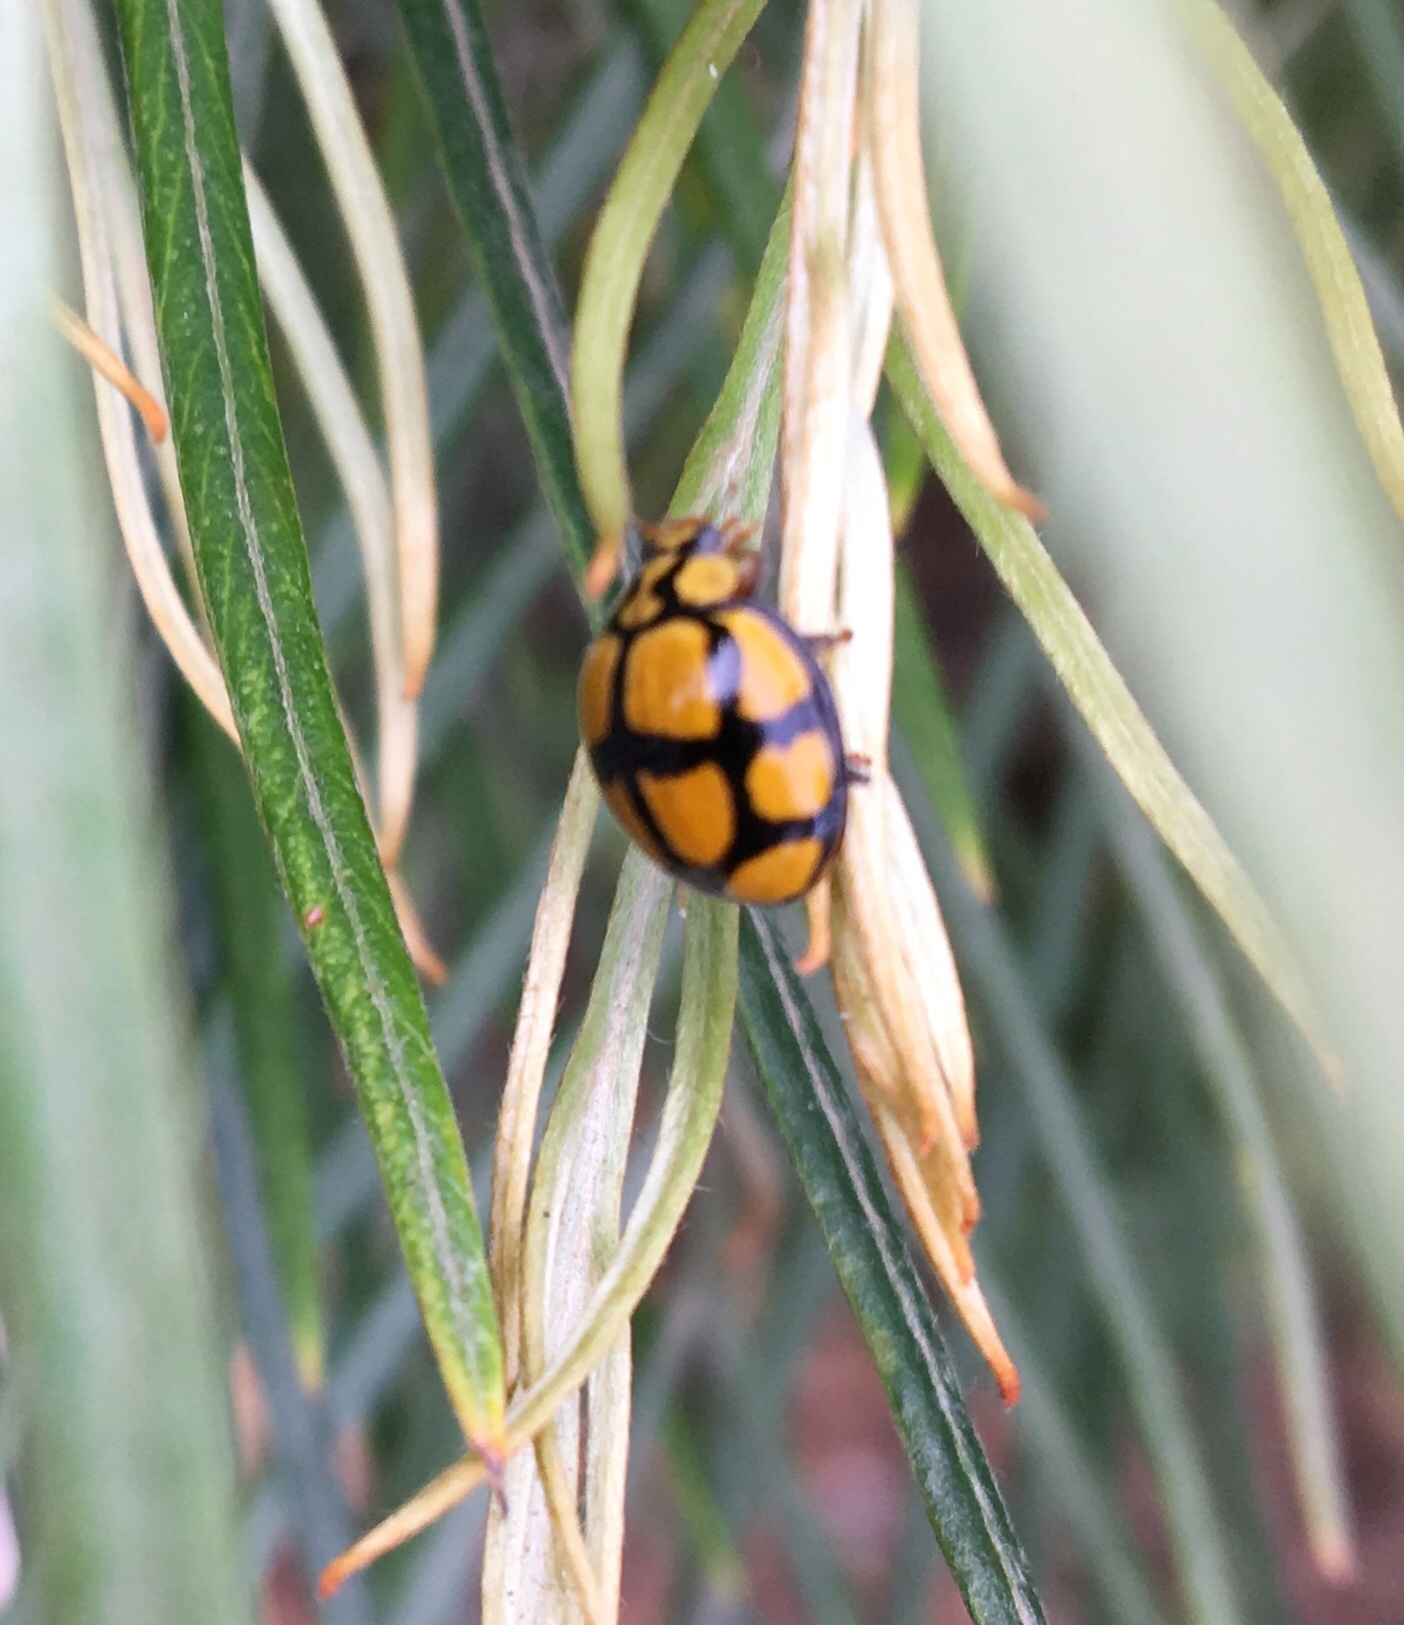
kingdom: Animalia
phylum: Arthropoda
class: Insecta
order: Coleoptera
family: Coccinellidae
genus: Harmonia
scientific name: Harmonia
